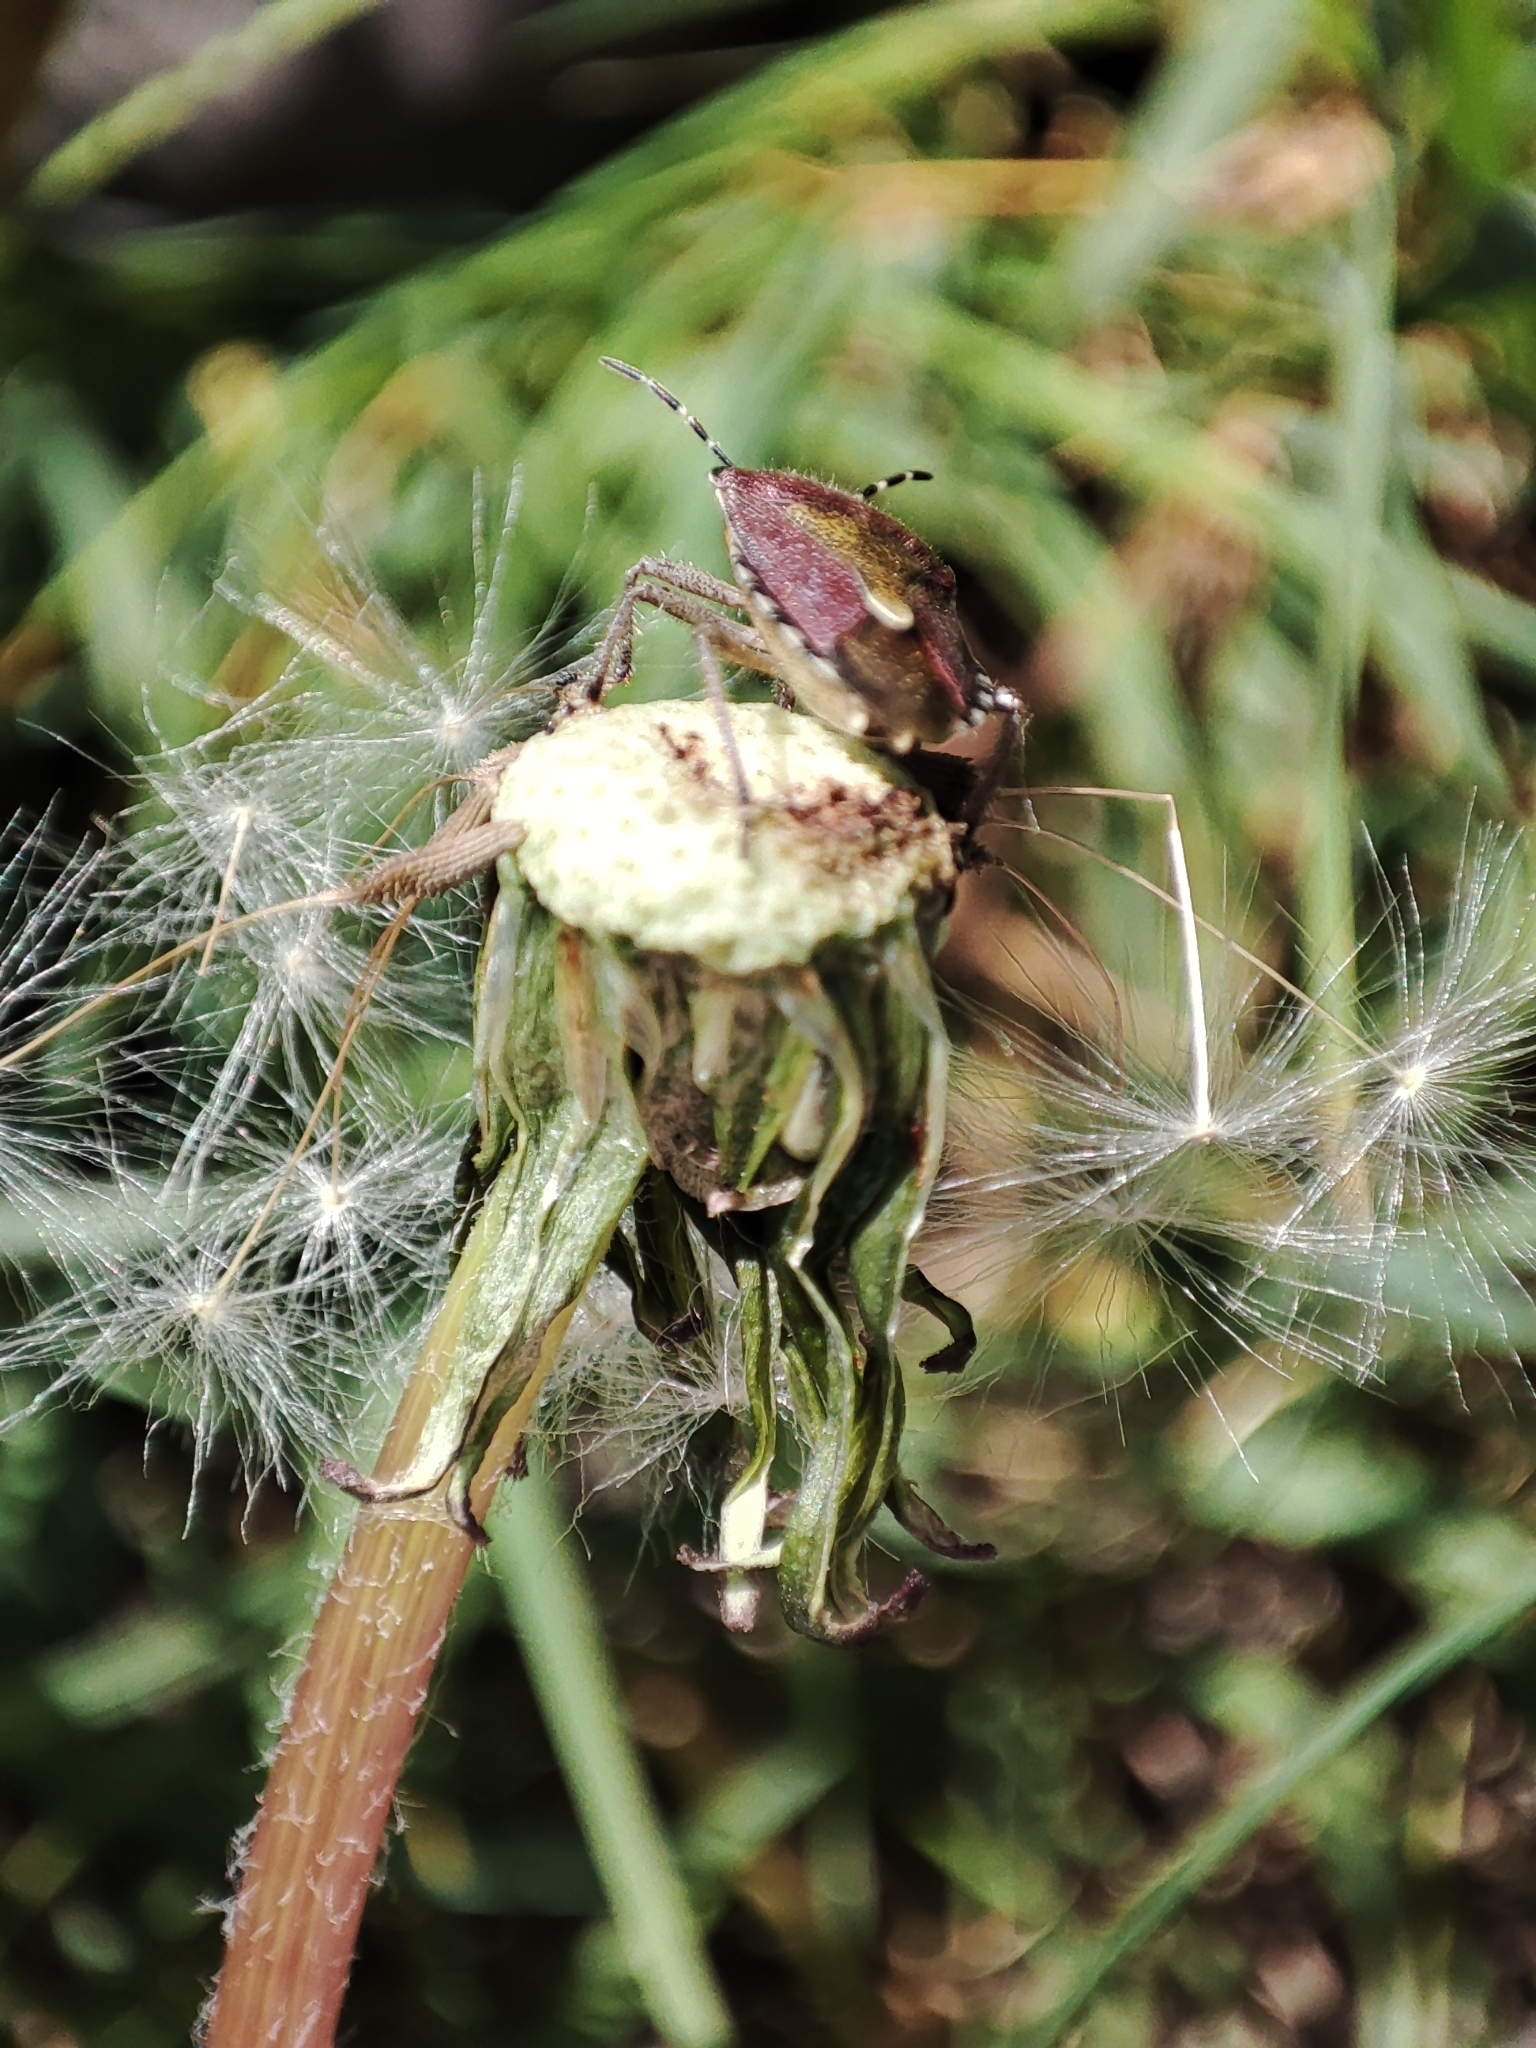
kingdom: Animalia
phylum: Arthropoda
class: Insecta
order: Hemiptera
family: Pentatomidae
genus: Dolycoris
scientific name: Dolycoris baccarum
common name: Sloe bug
